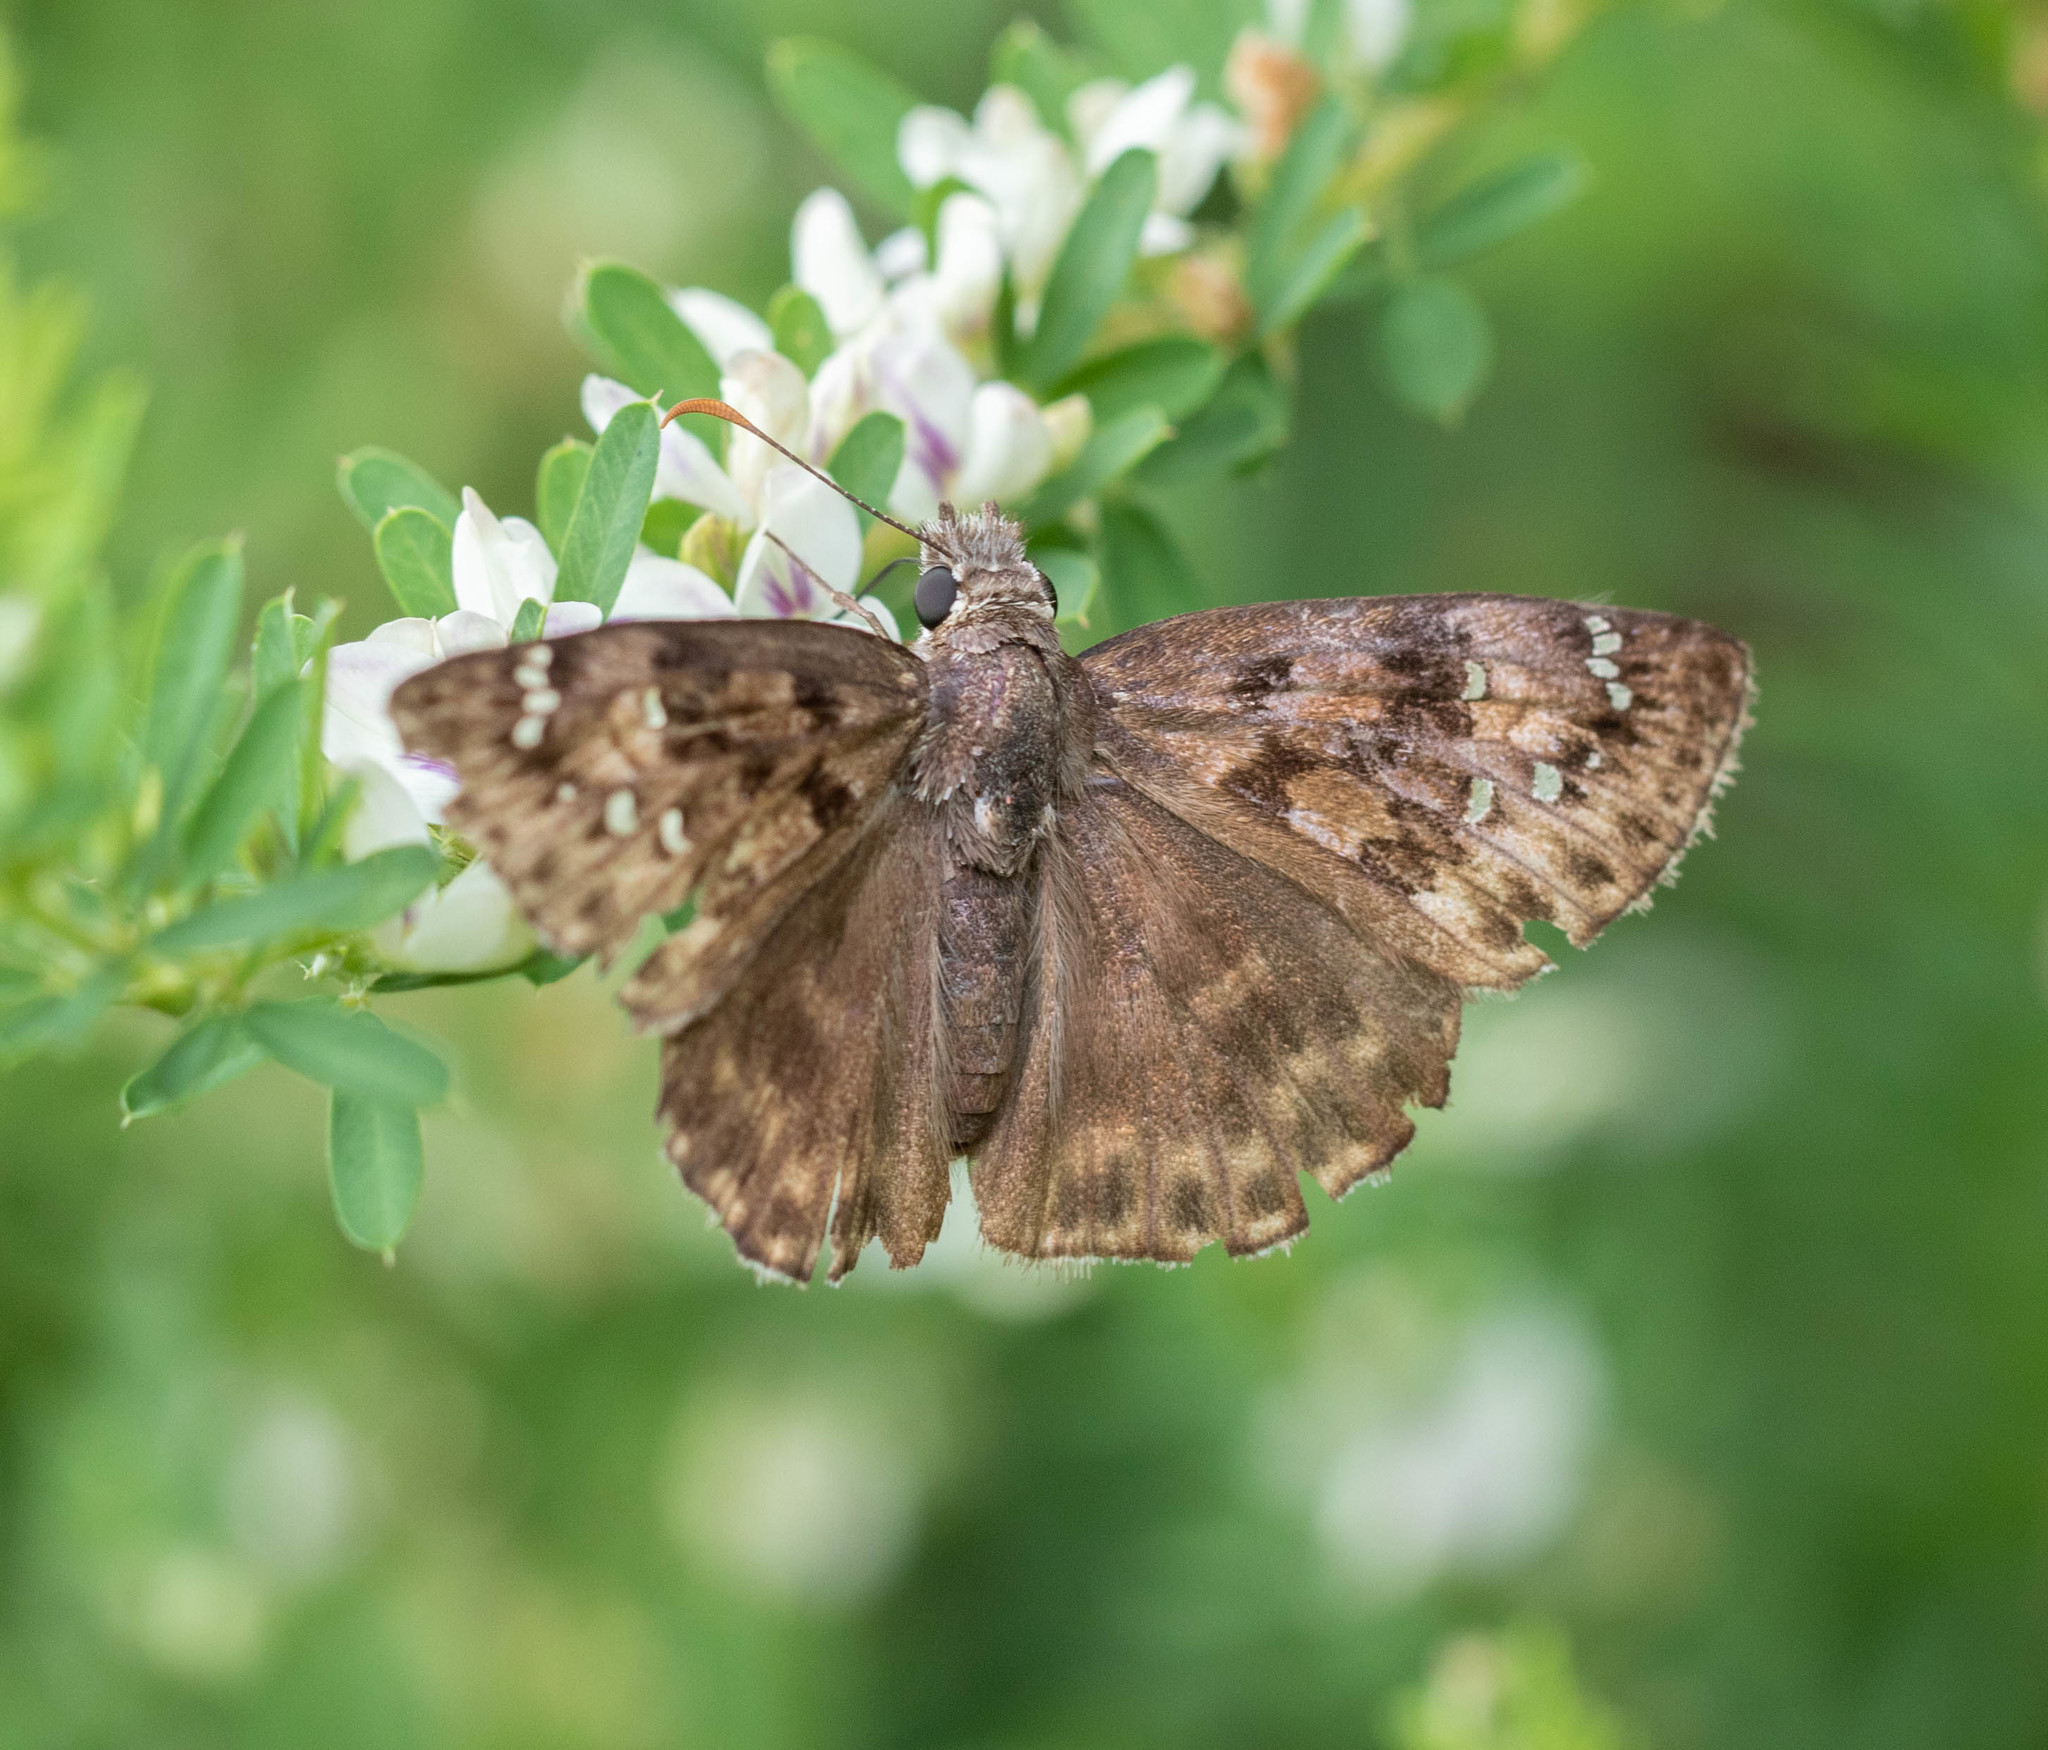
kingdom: Animalia
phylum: Arthropoda
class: Insecta
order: Lepidoptera
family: Hesperiidae
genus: Erynnis
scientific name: Erynnis horatius
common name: Horace's duskywing
